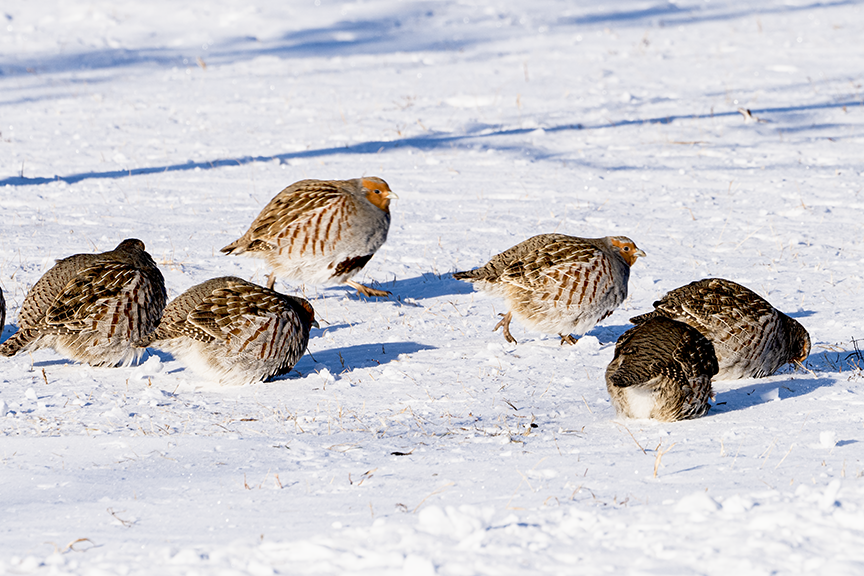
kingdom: Animalia
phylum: Chordata
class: Aves
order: Galliformes
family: Phasianidae
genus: Perdix
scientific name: Perdix perdix
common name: Grey partridge
